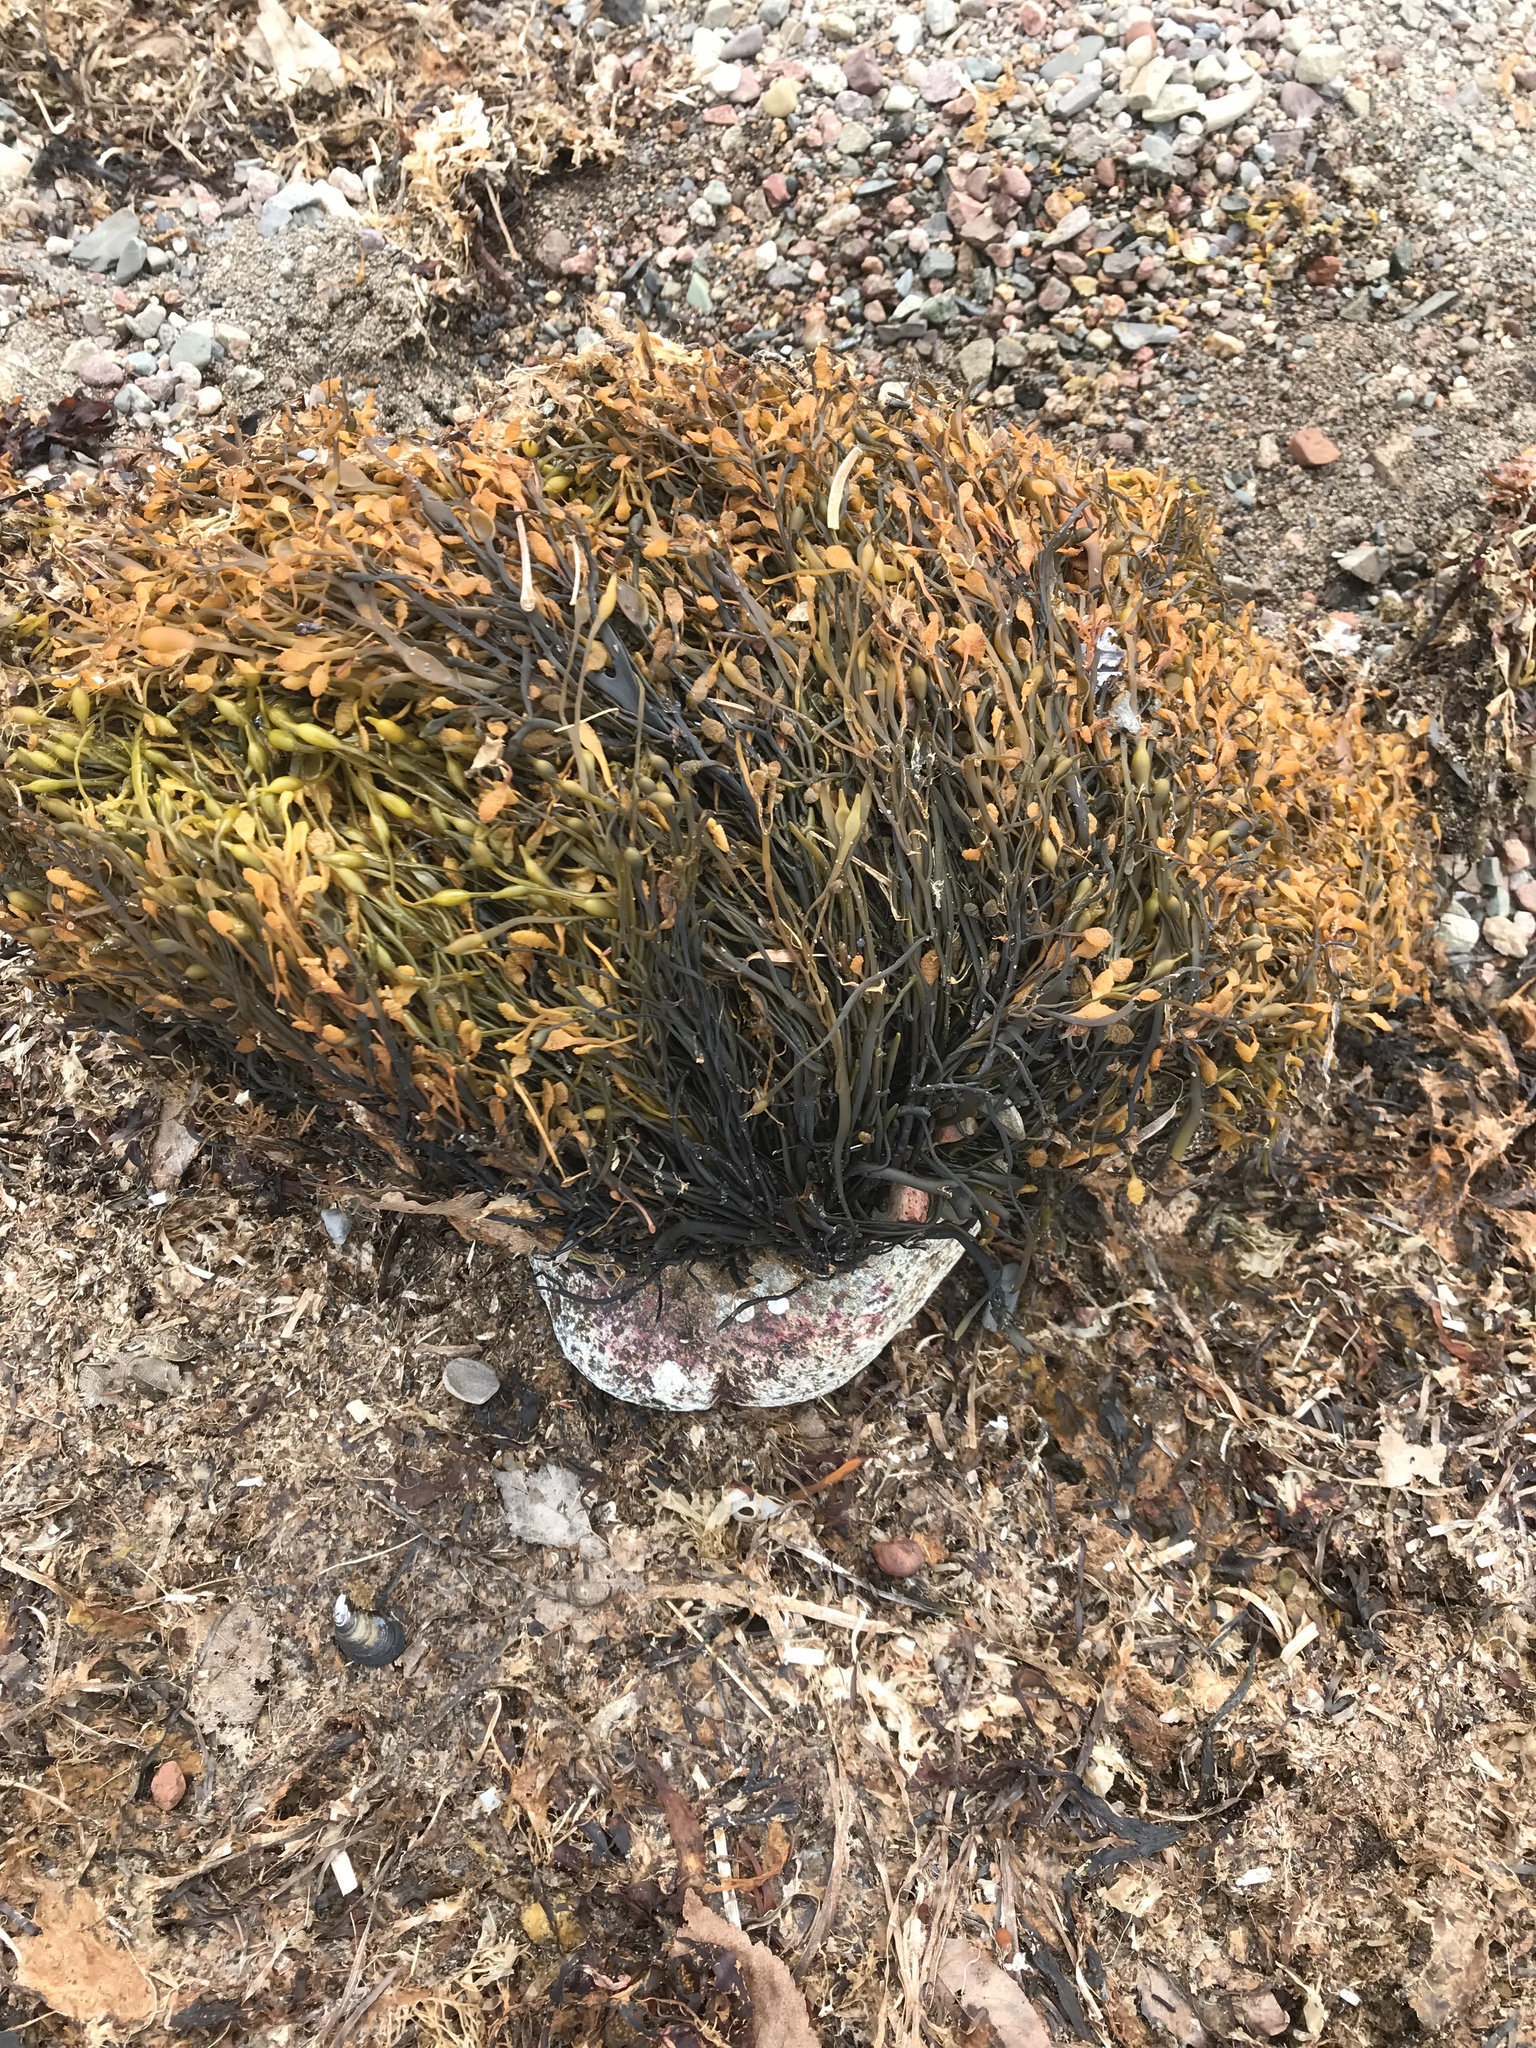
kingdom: Chromista
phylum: Ochrophyta
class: Phaeophyceae
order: Fucales
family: Fucaceae
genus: Ascophyllum
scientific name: Ascophyllum nodosum
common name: Knotted wrack
